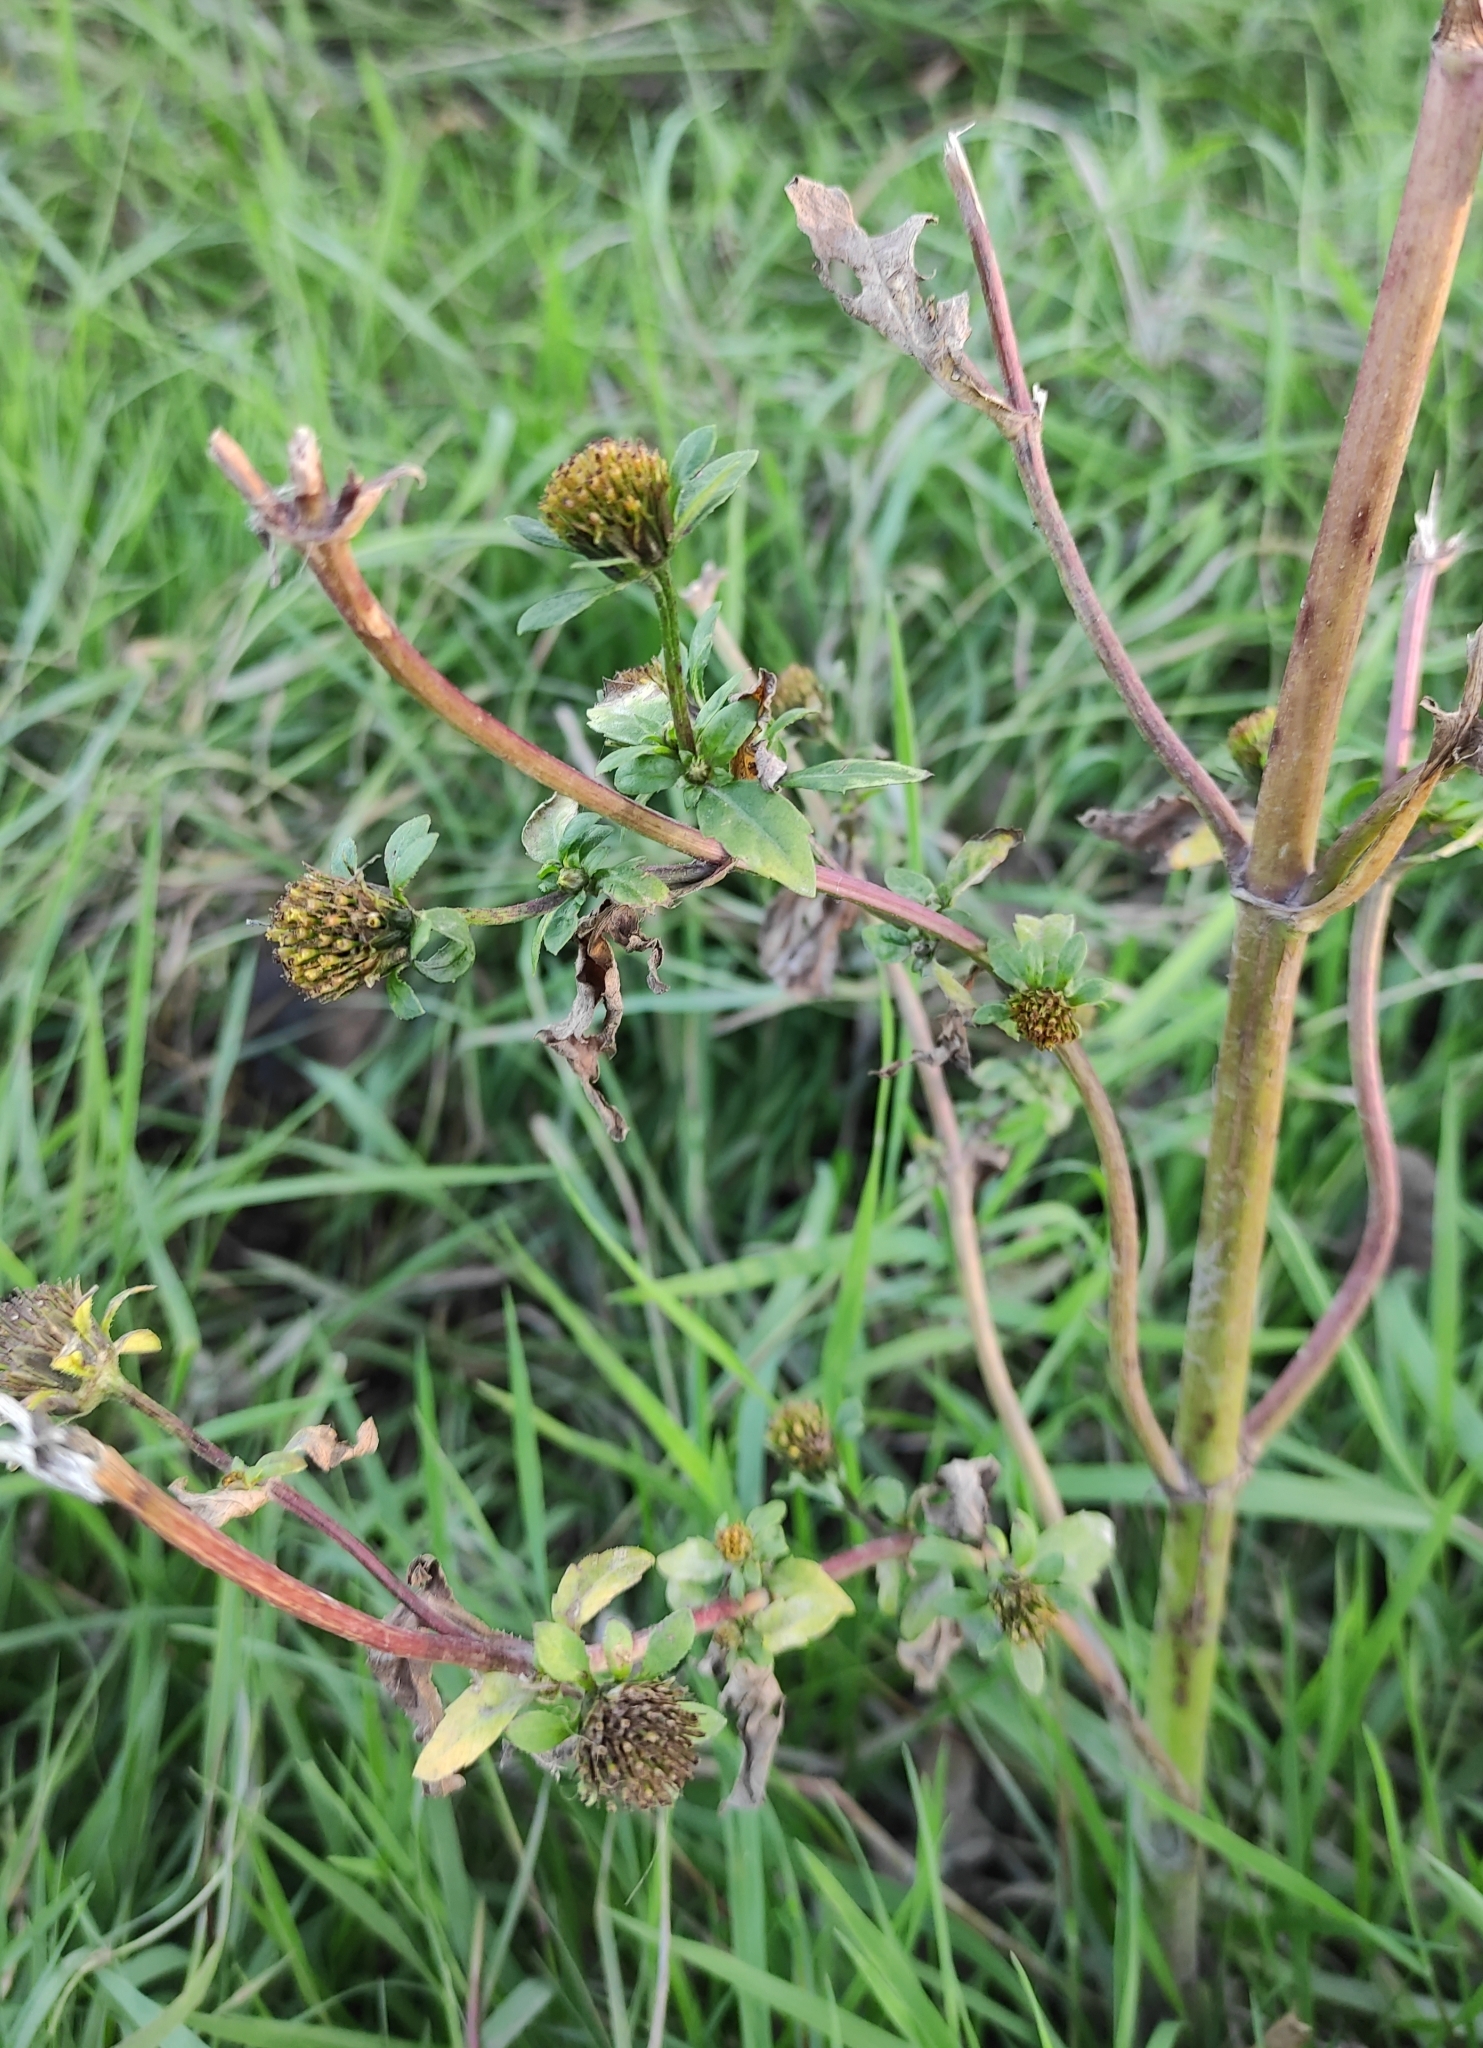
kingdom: Plantae
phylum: Tracheophyta
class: Magnoliopsida
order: Asterales
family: Asteraceae
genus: Bidens
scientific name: Bidens tripartita
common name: Trifid bur-marigold
